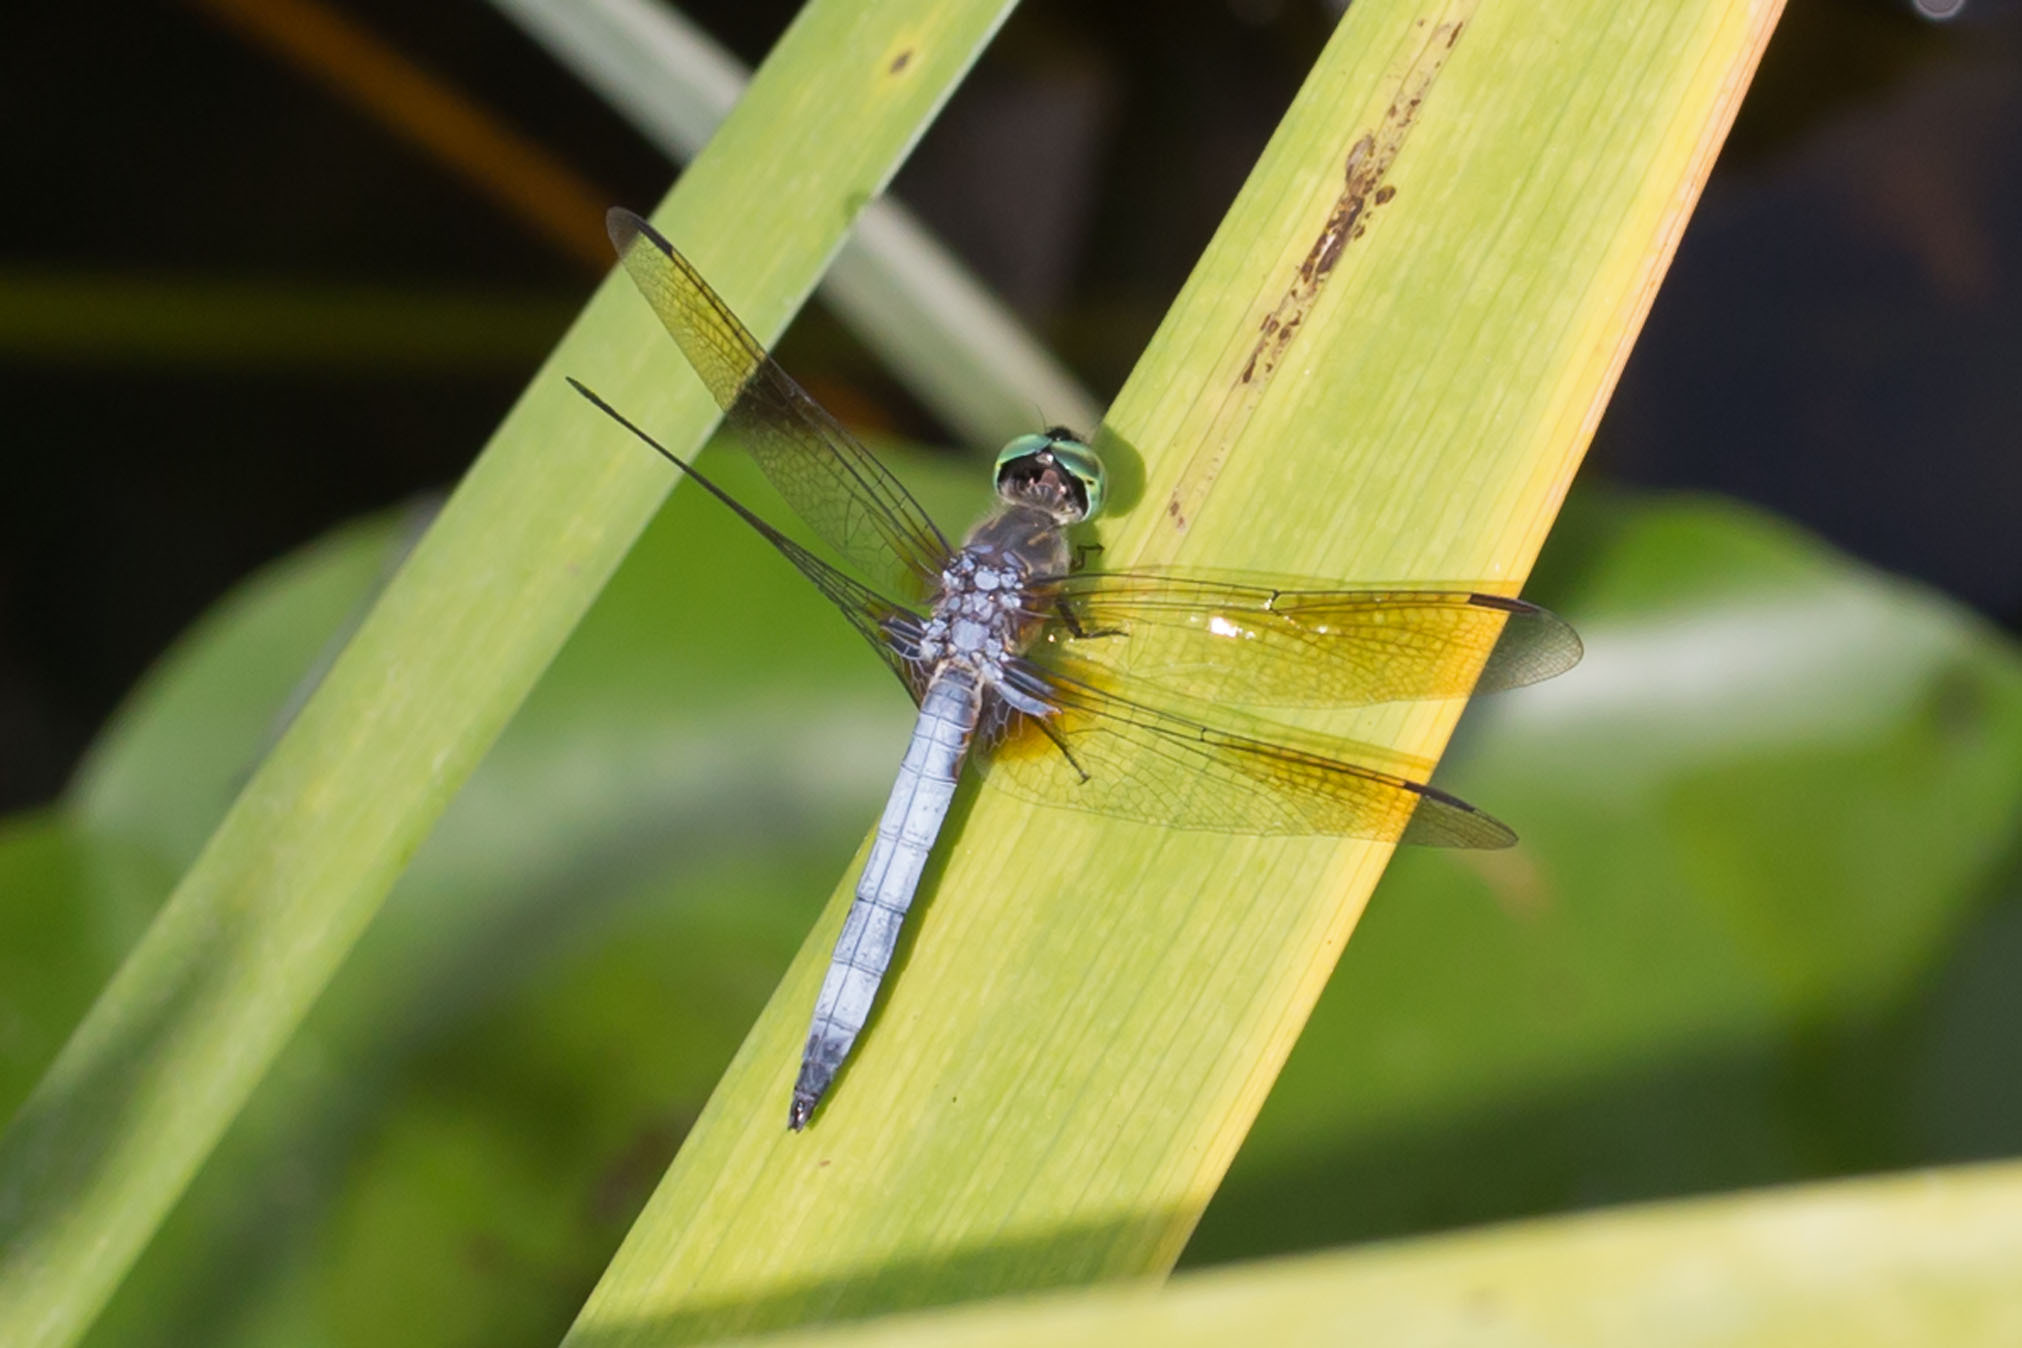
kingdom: Animalia
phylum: Arthropoda
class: Insecta
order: Odonata
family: Libellulidae
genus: Pachydiplax
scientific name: Pachydiplax longipennis
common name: Blue dasher
